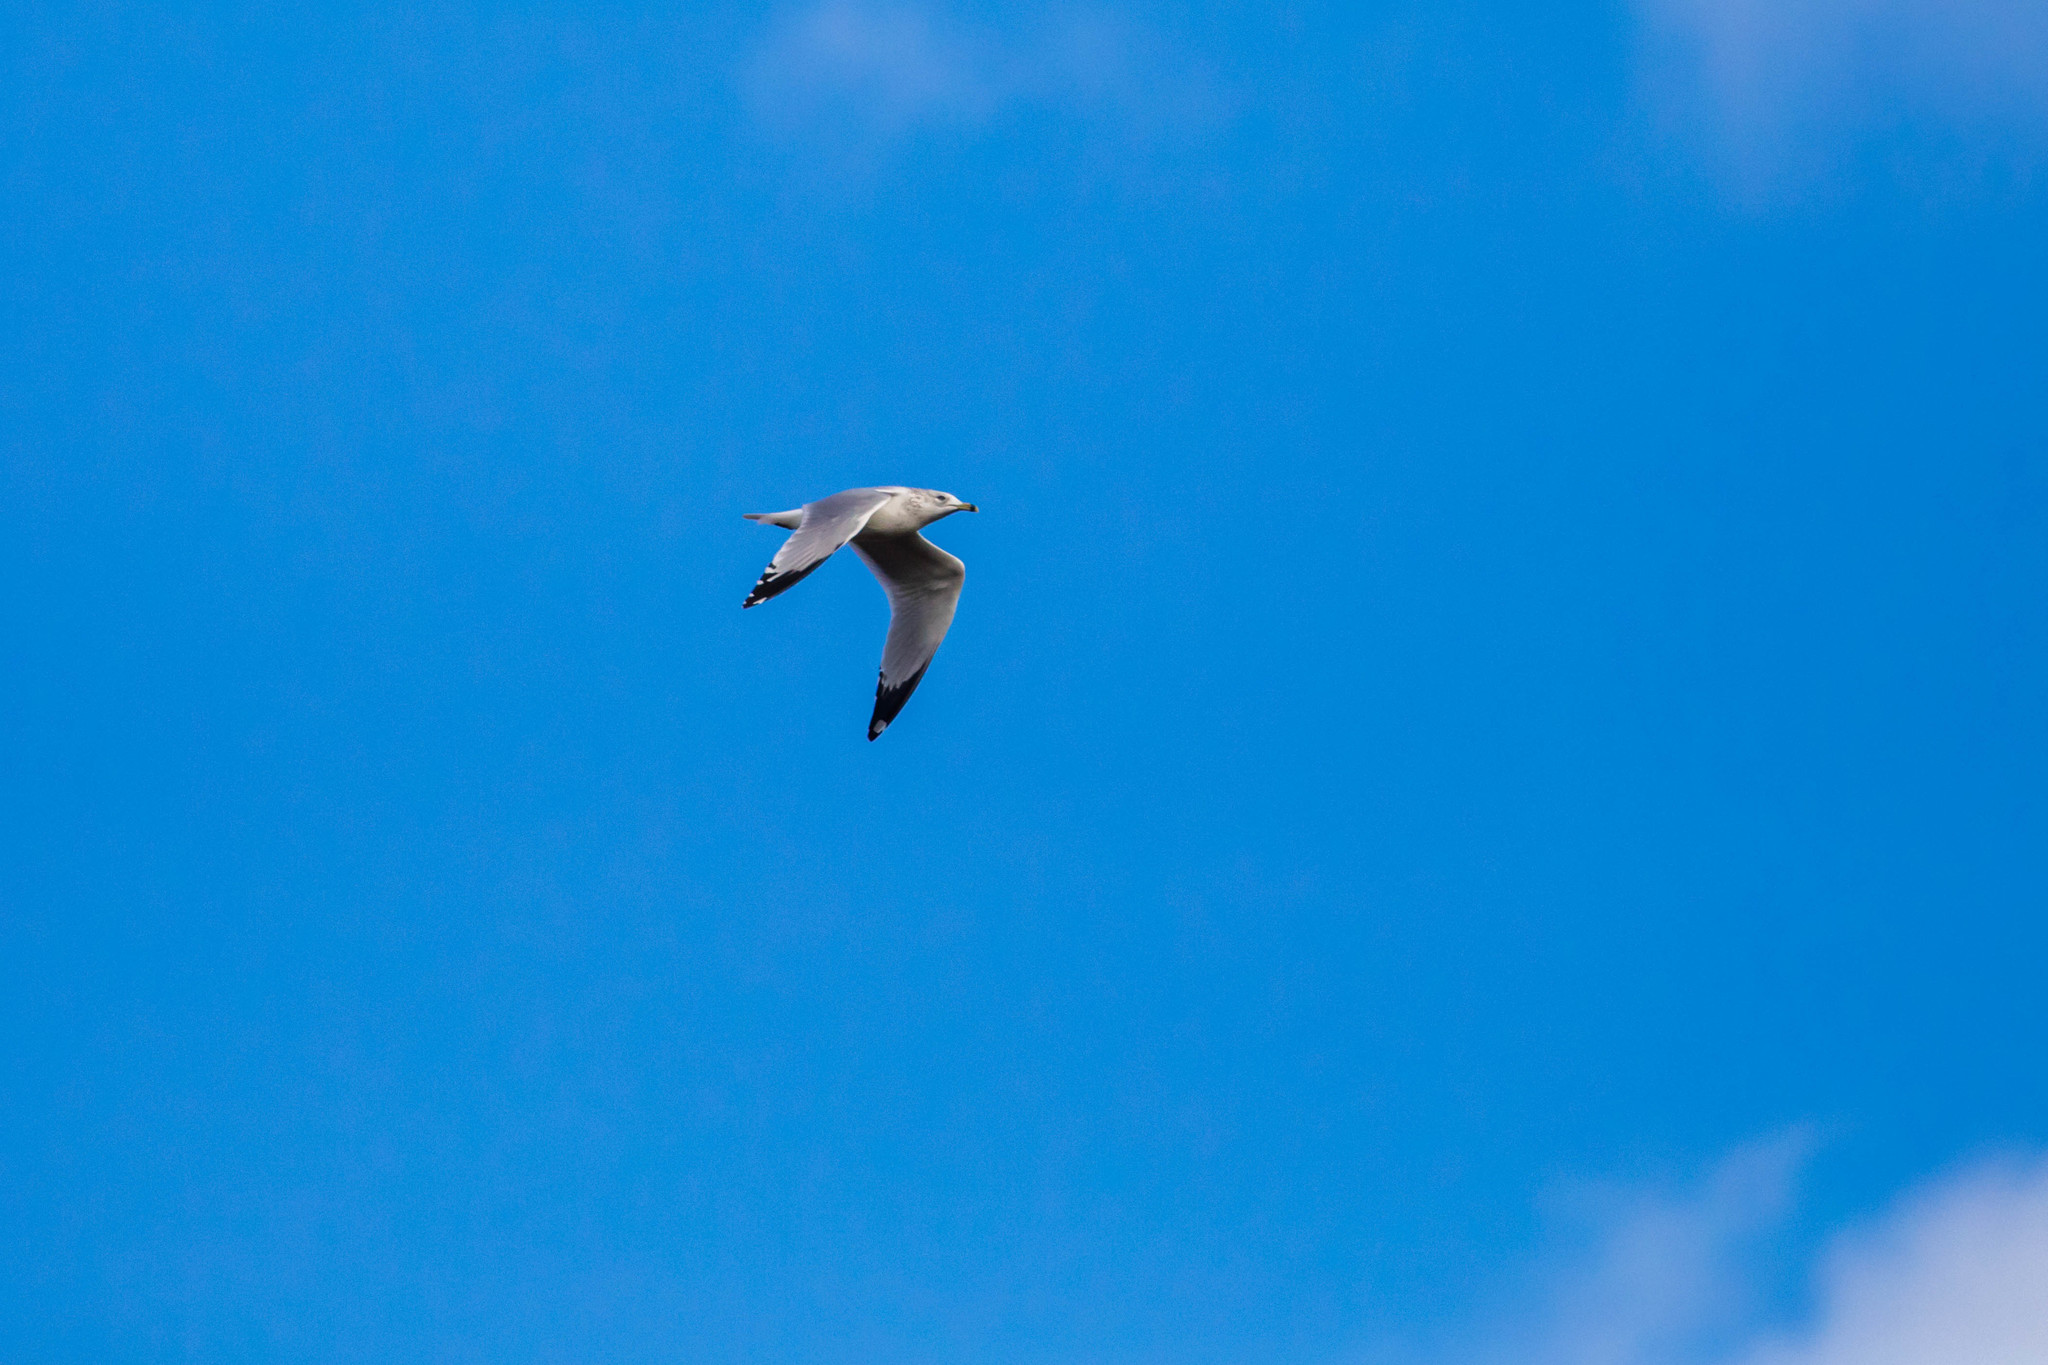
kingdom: Animalia
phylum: Chordata
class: Aves
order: Charadriiformes
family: Laridae
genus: Larus
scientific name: Larus delawarensis
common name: Ring-billed gull
